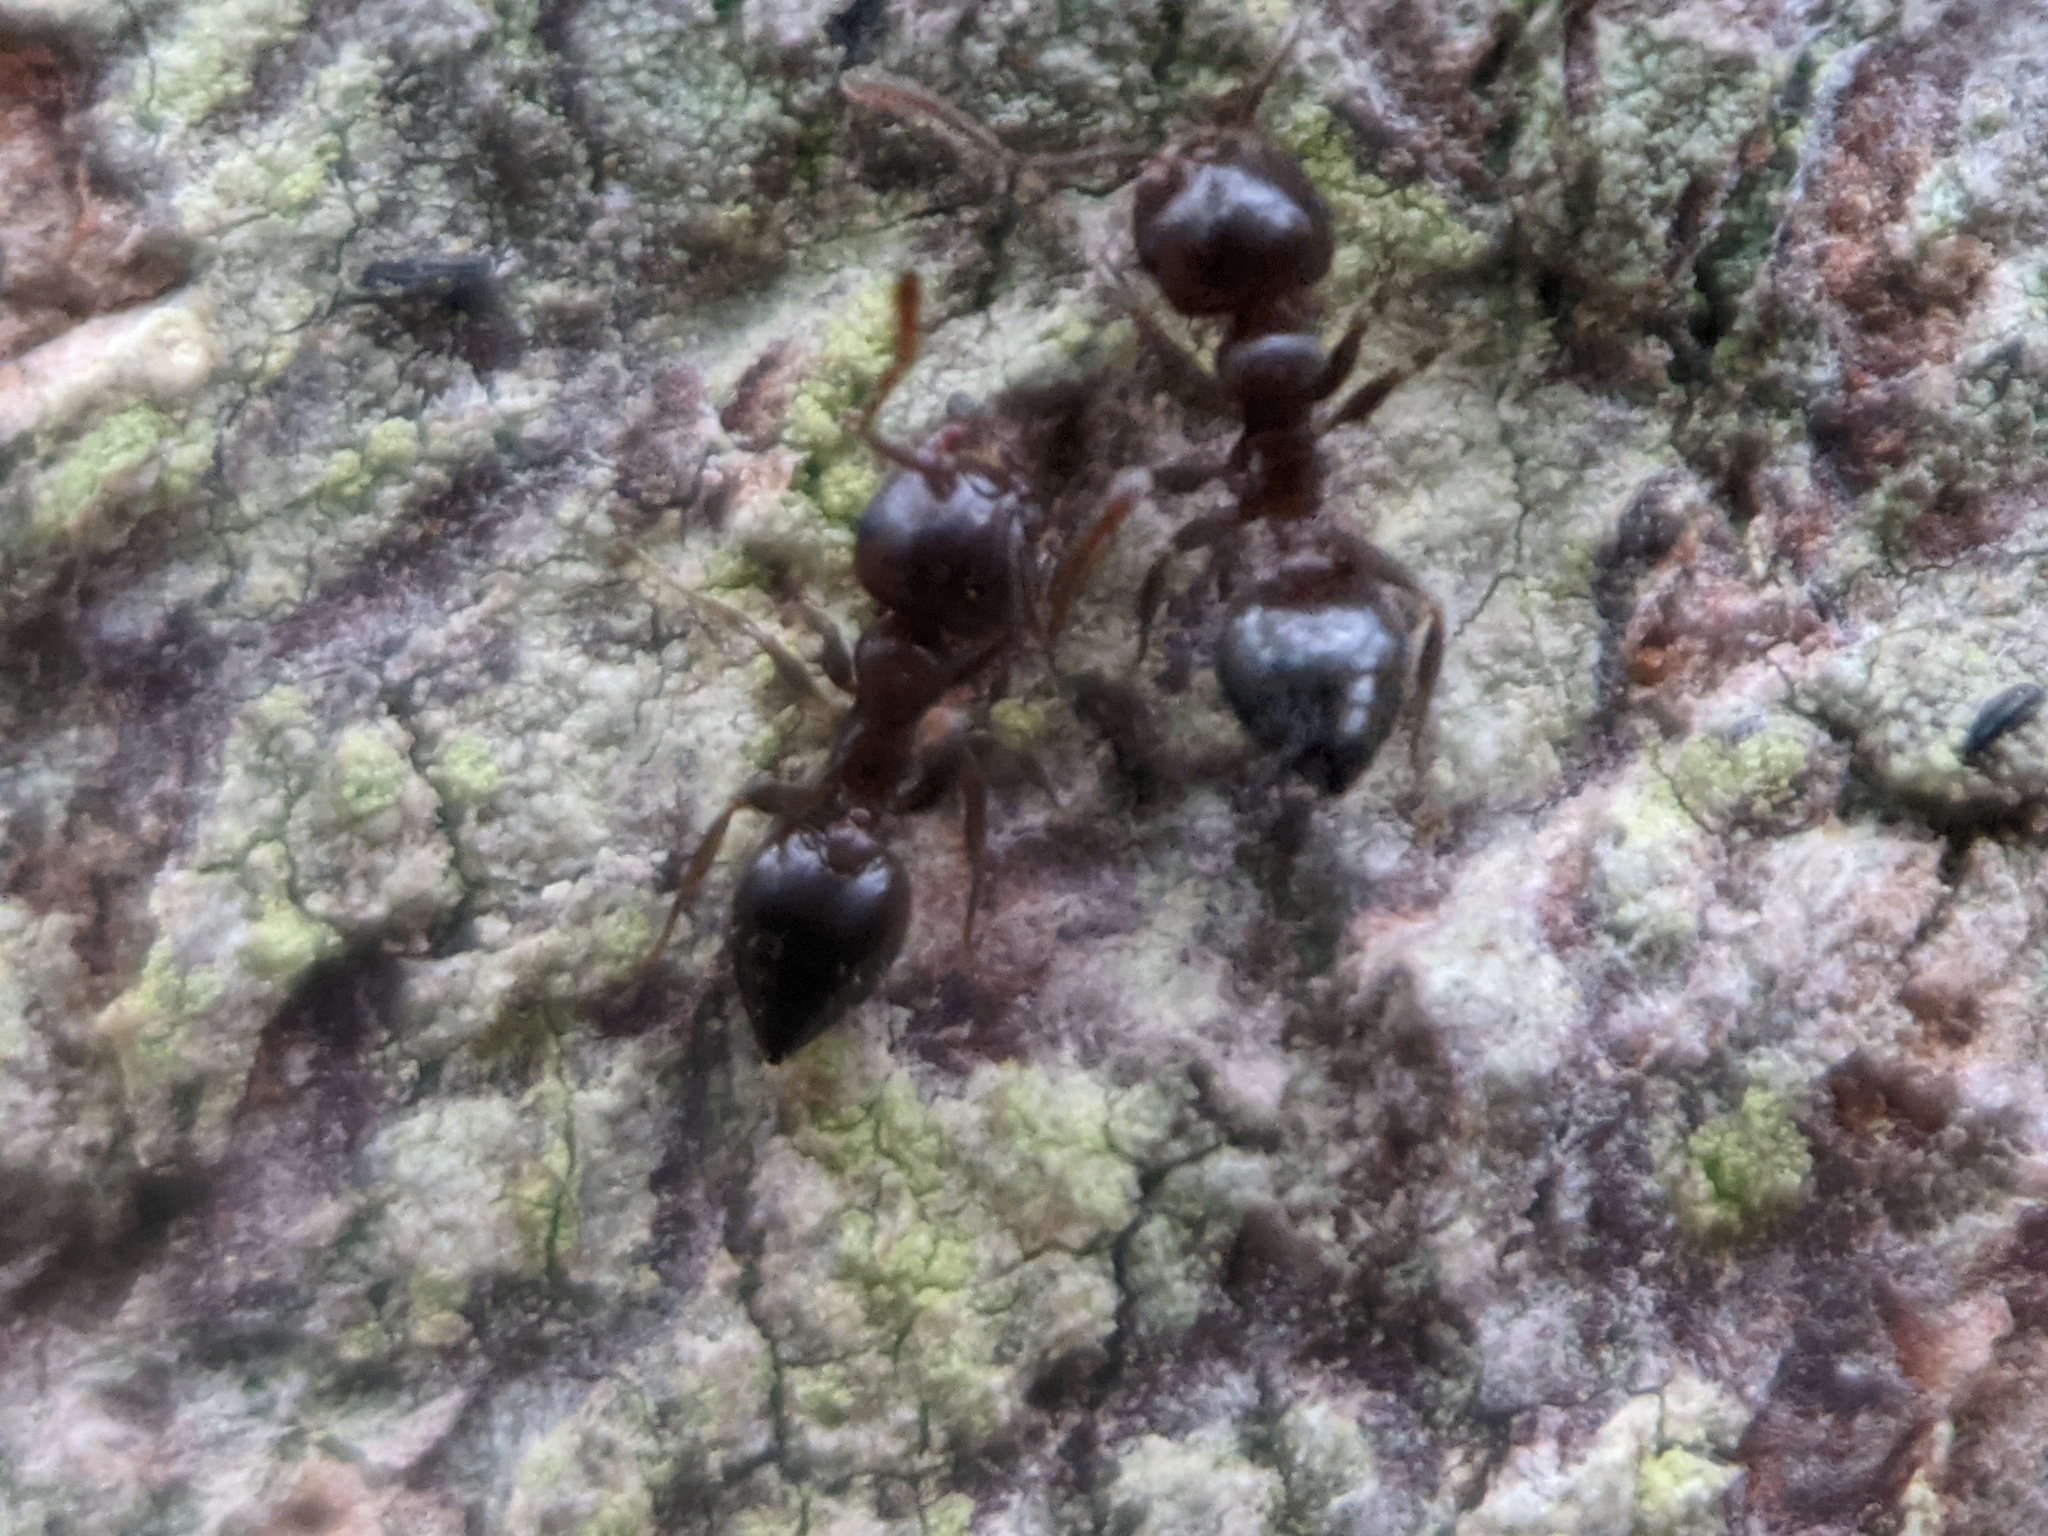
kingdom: Animalia
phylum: Arthropoda
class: Insecta
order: Hymenoptera
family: Formicidae
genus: Crematogaster
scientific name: Crematogaster ashmeadi
